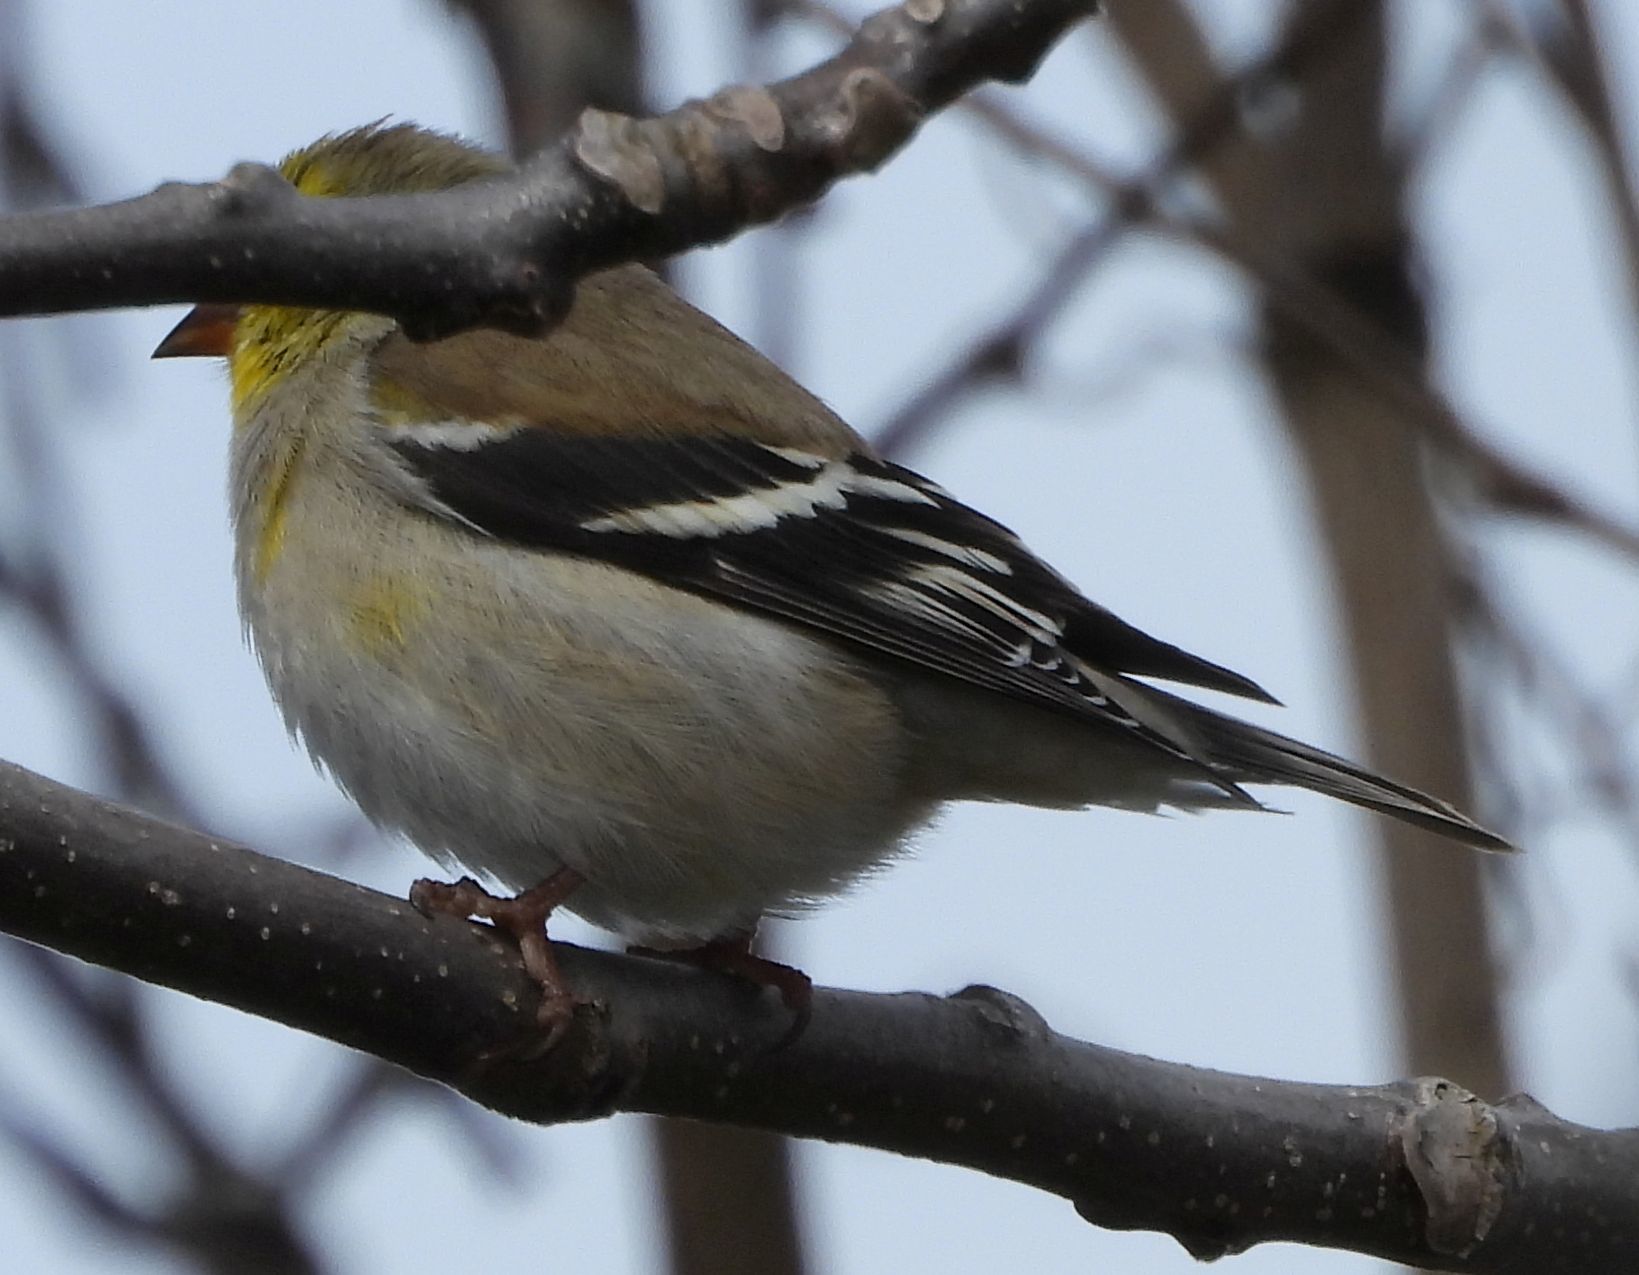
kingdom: Animalia
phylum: Chordata
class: Aves
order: Passeriformes
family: Fringillidae
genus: Spinus
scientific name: Spinus tristis
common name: American goldfinch
